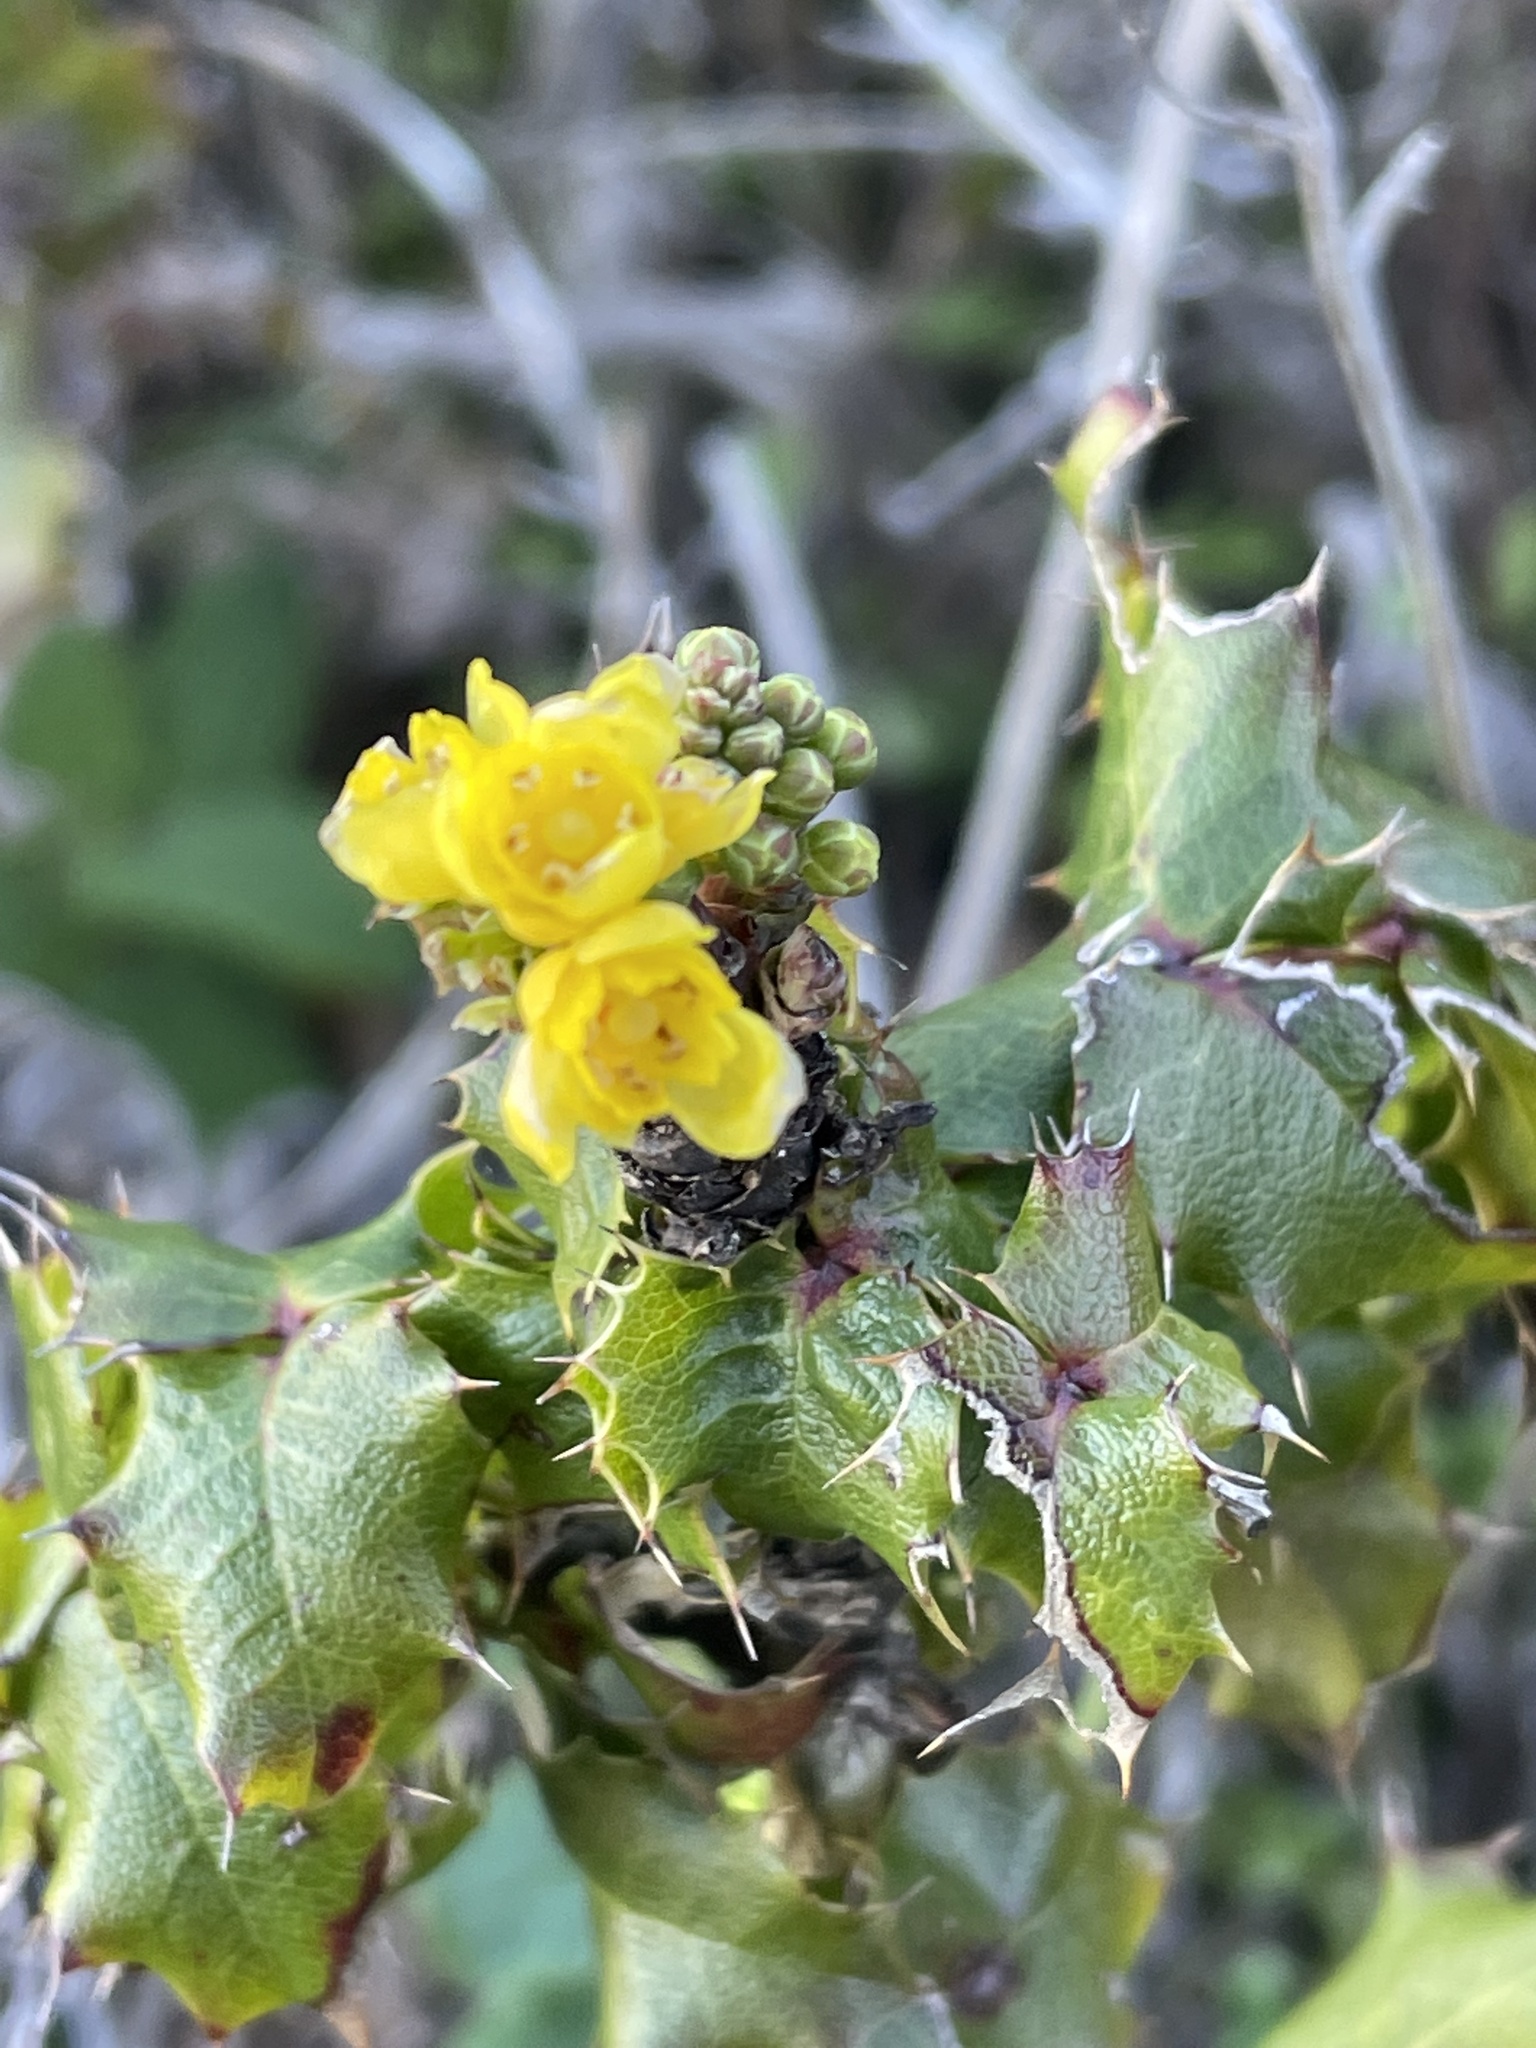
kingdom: Plantae
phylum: Tracheophyta
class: Magnoliopsida
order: Ranunculales
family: Berberidaceae
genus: Mahonia
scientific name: Mahonia
